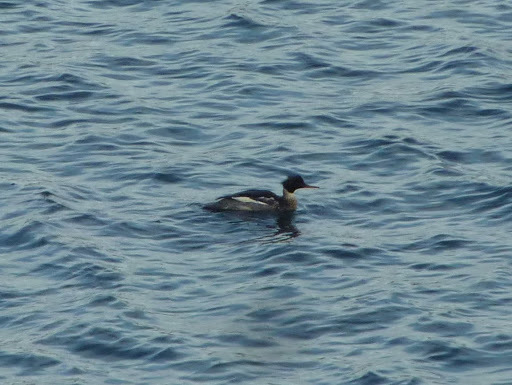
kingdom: Animalia
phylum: Chordata
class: Aves
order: Anseriformes
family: Anatidae
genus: Mergus
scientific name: Mergus serrator
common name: Red-breasted merganser
